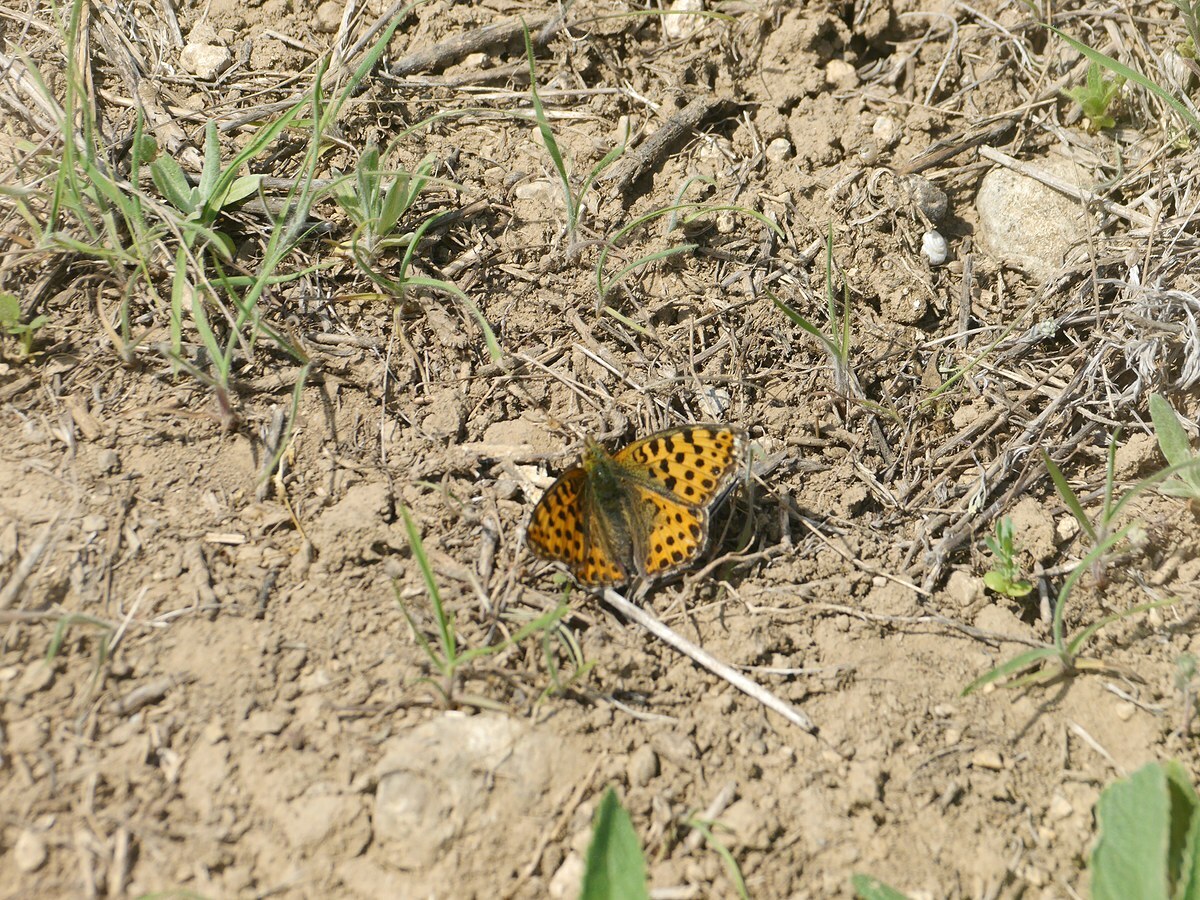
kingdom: Animalia
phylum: Arthropoda
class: Insecta
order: Lepidoptera
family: Nymphalidae
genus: Issoria
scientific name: Issoria lathonia
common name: Queen of spain fritillary
